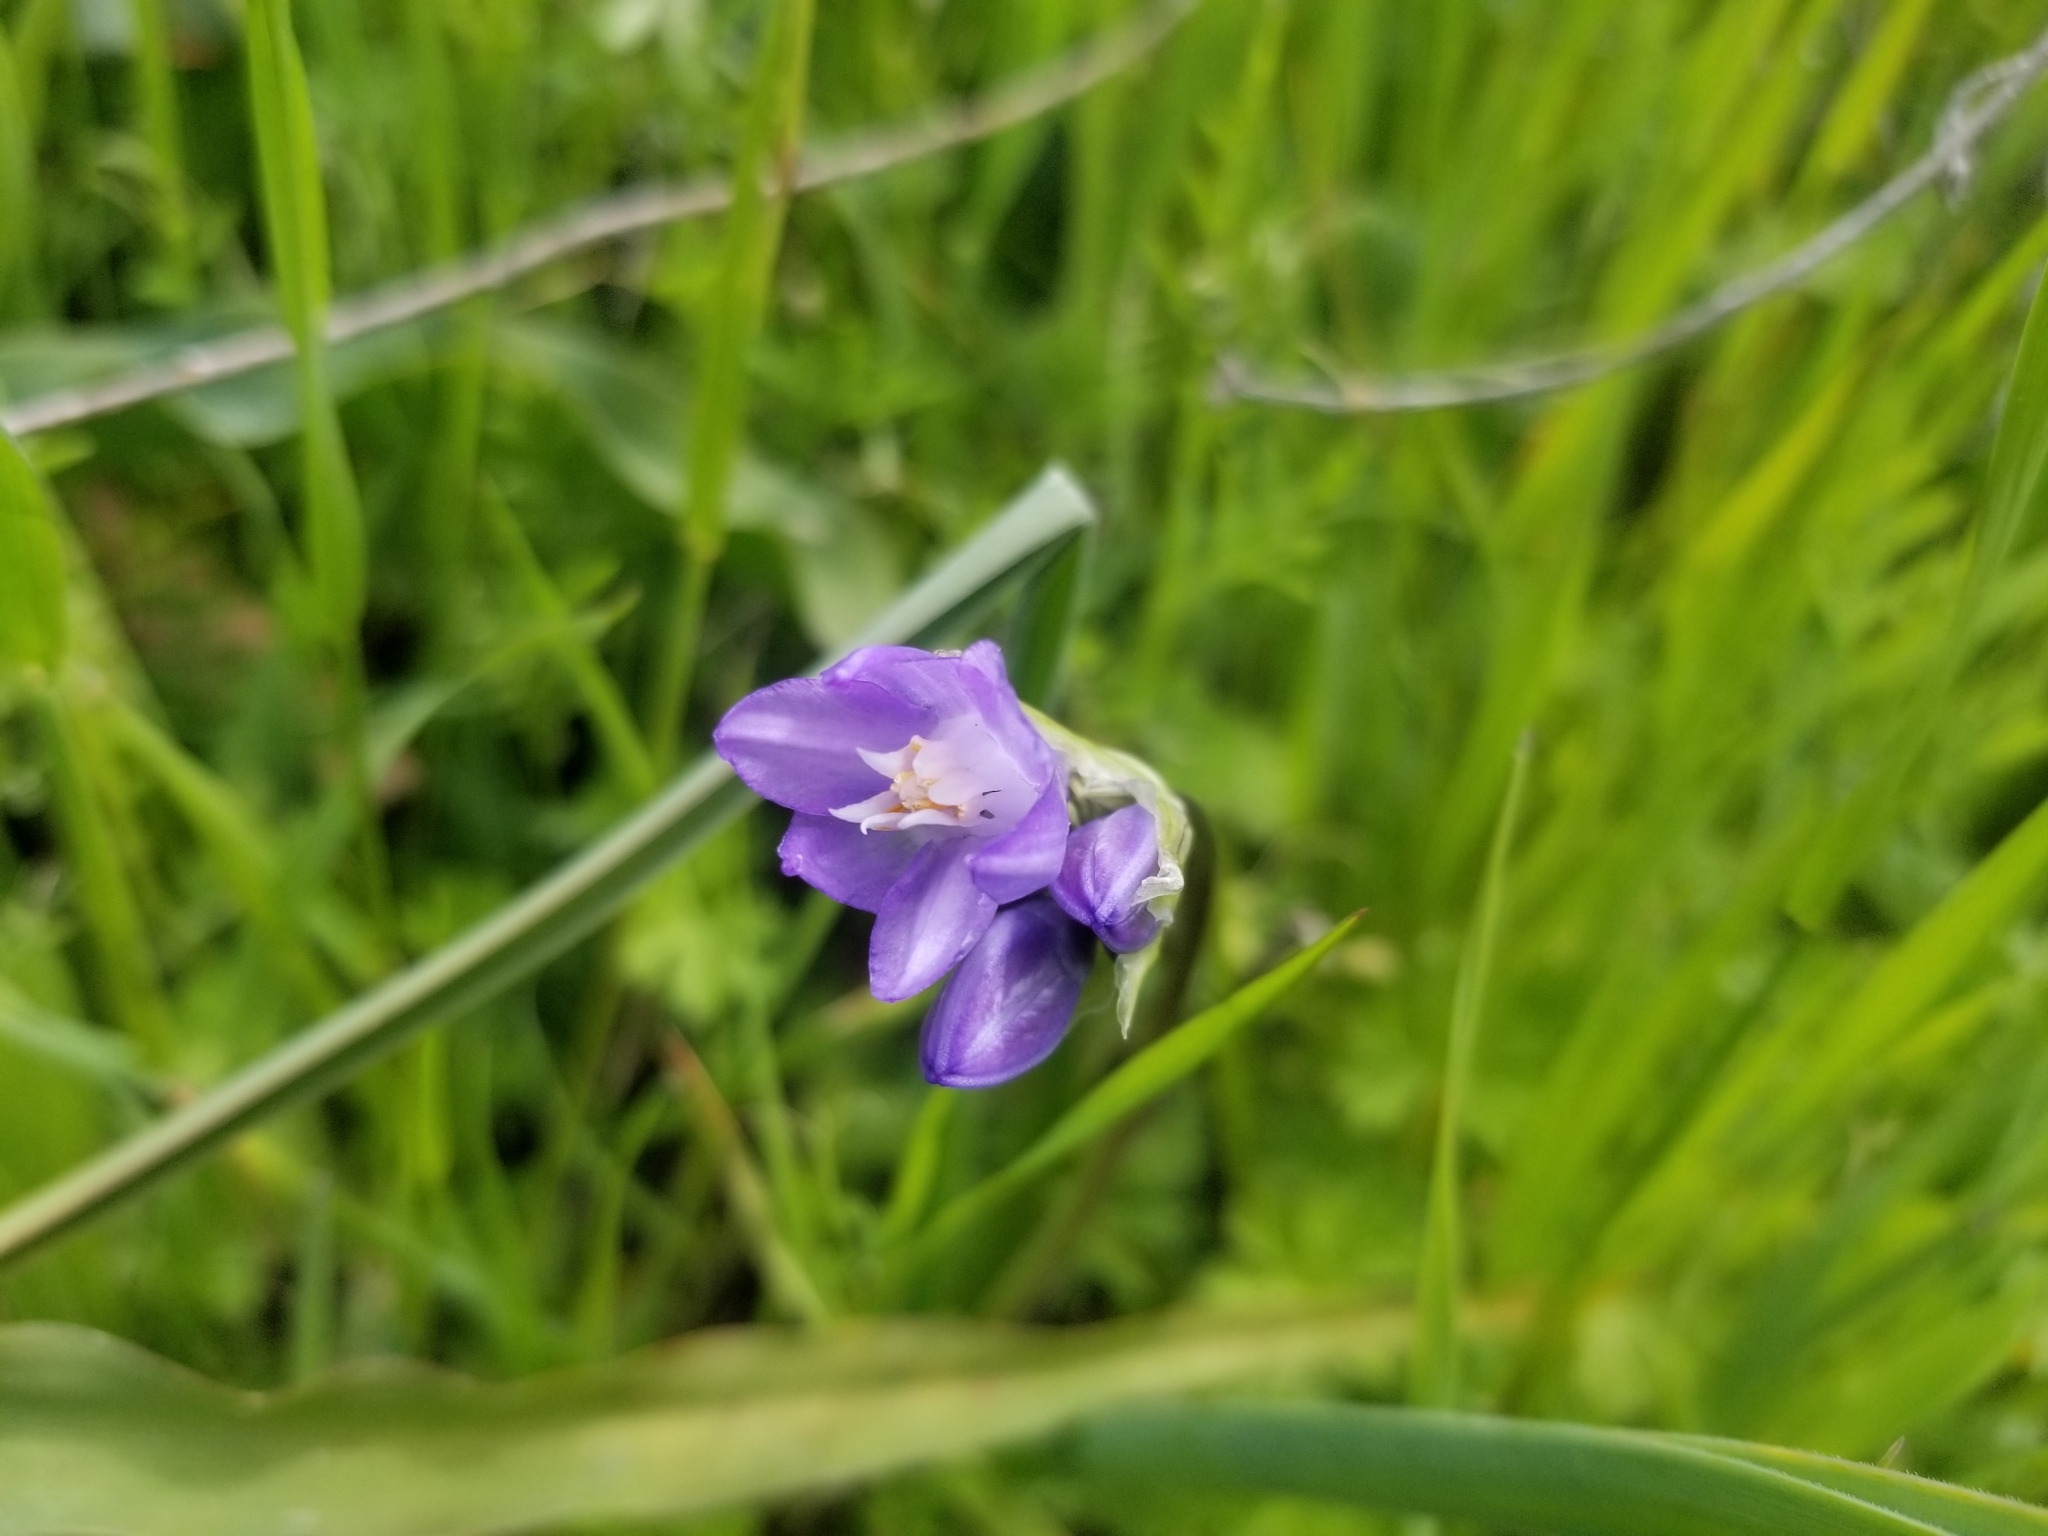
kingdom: Plantae
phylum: Tracheophyta
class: Liliopsida
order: Asparagales
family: Asparagaceae
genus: Dipterostemon
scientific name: Dipterostemon capitatus
